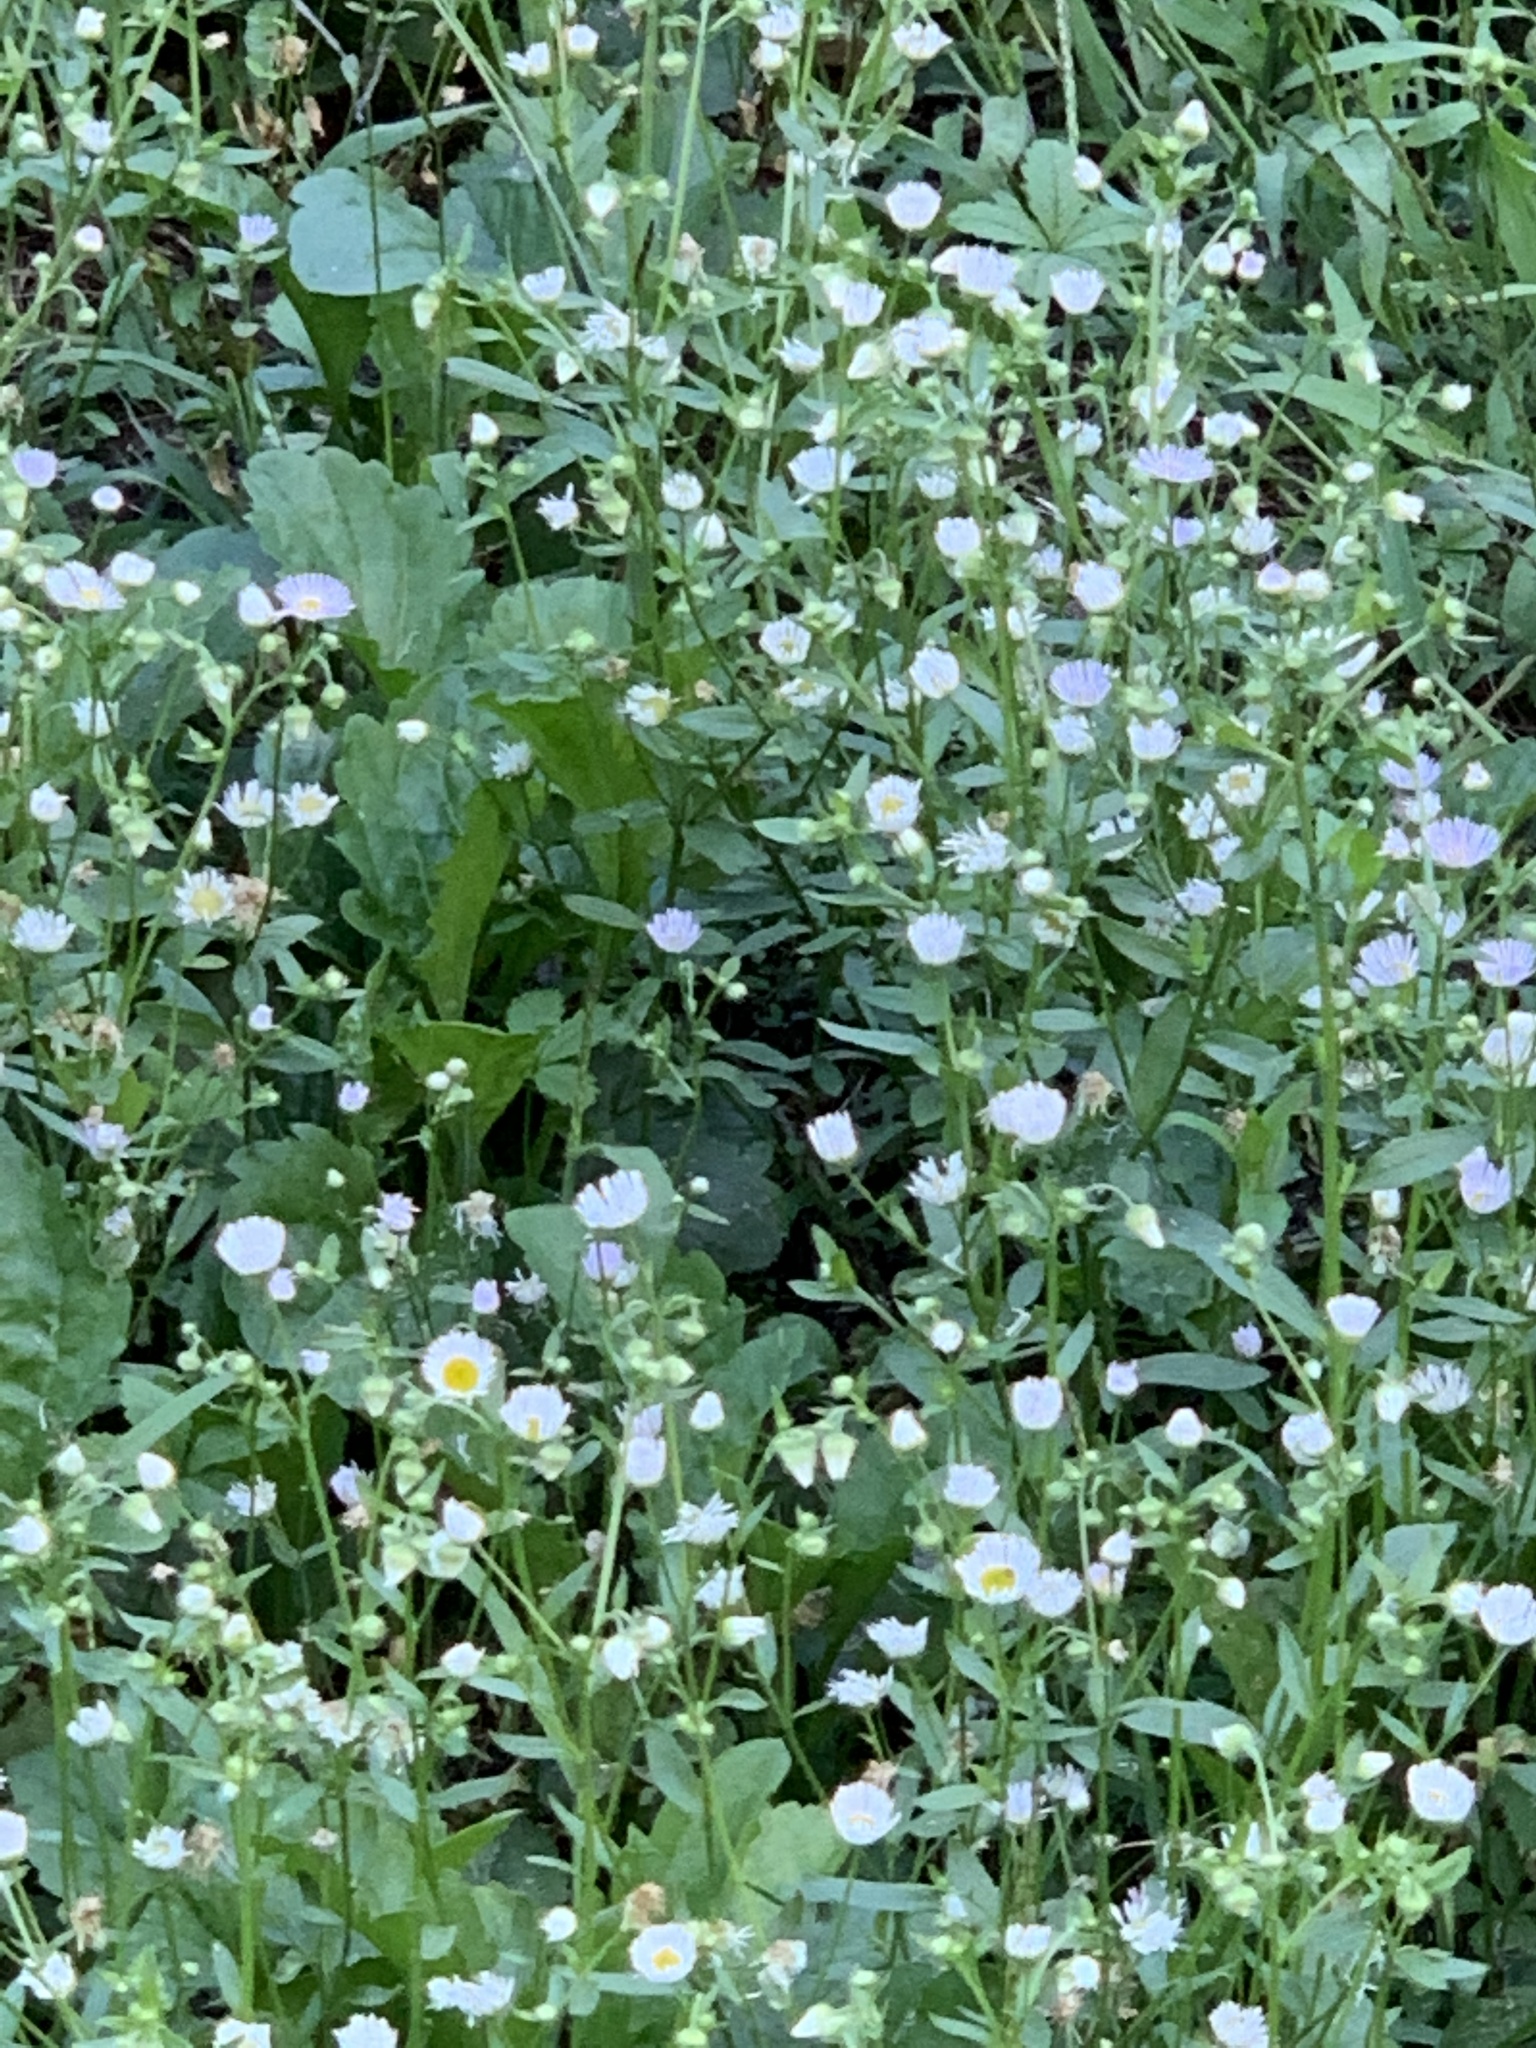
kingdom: Plantae
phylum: Tracheophyta
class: Magnoliopsida
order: Asterales
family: Asteraceae
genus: Erigeron
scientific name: Erigeron annuus
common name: Tall fleabane
